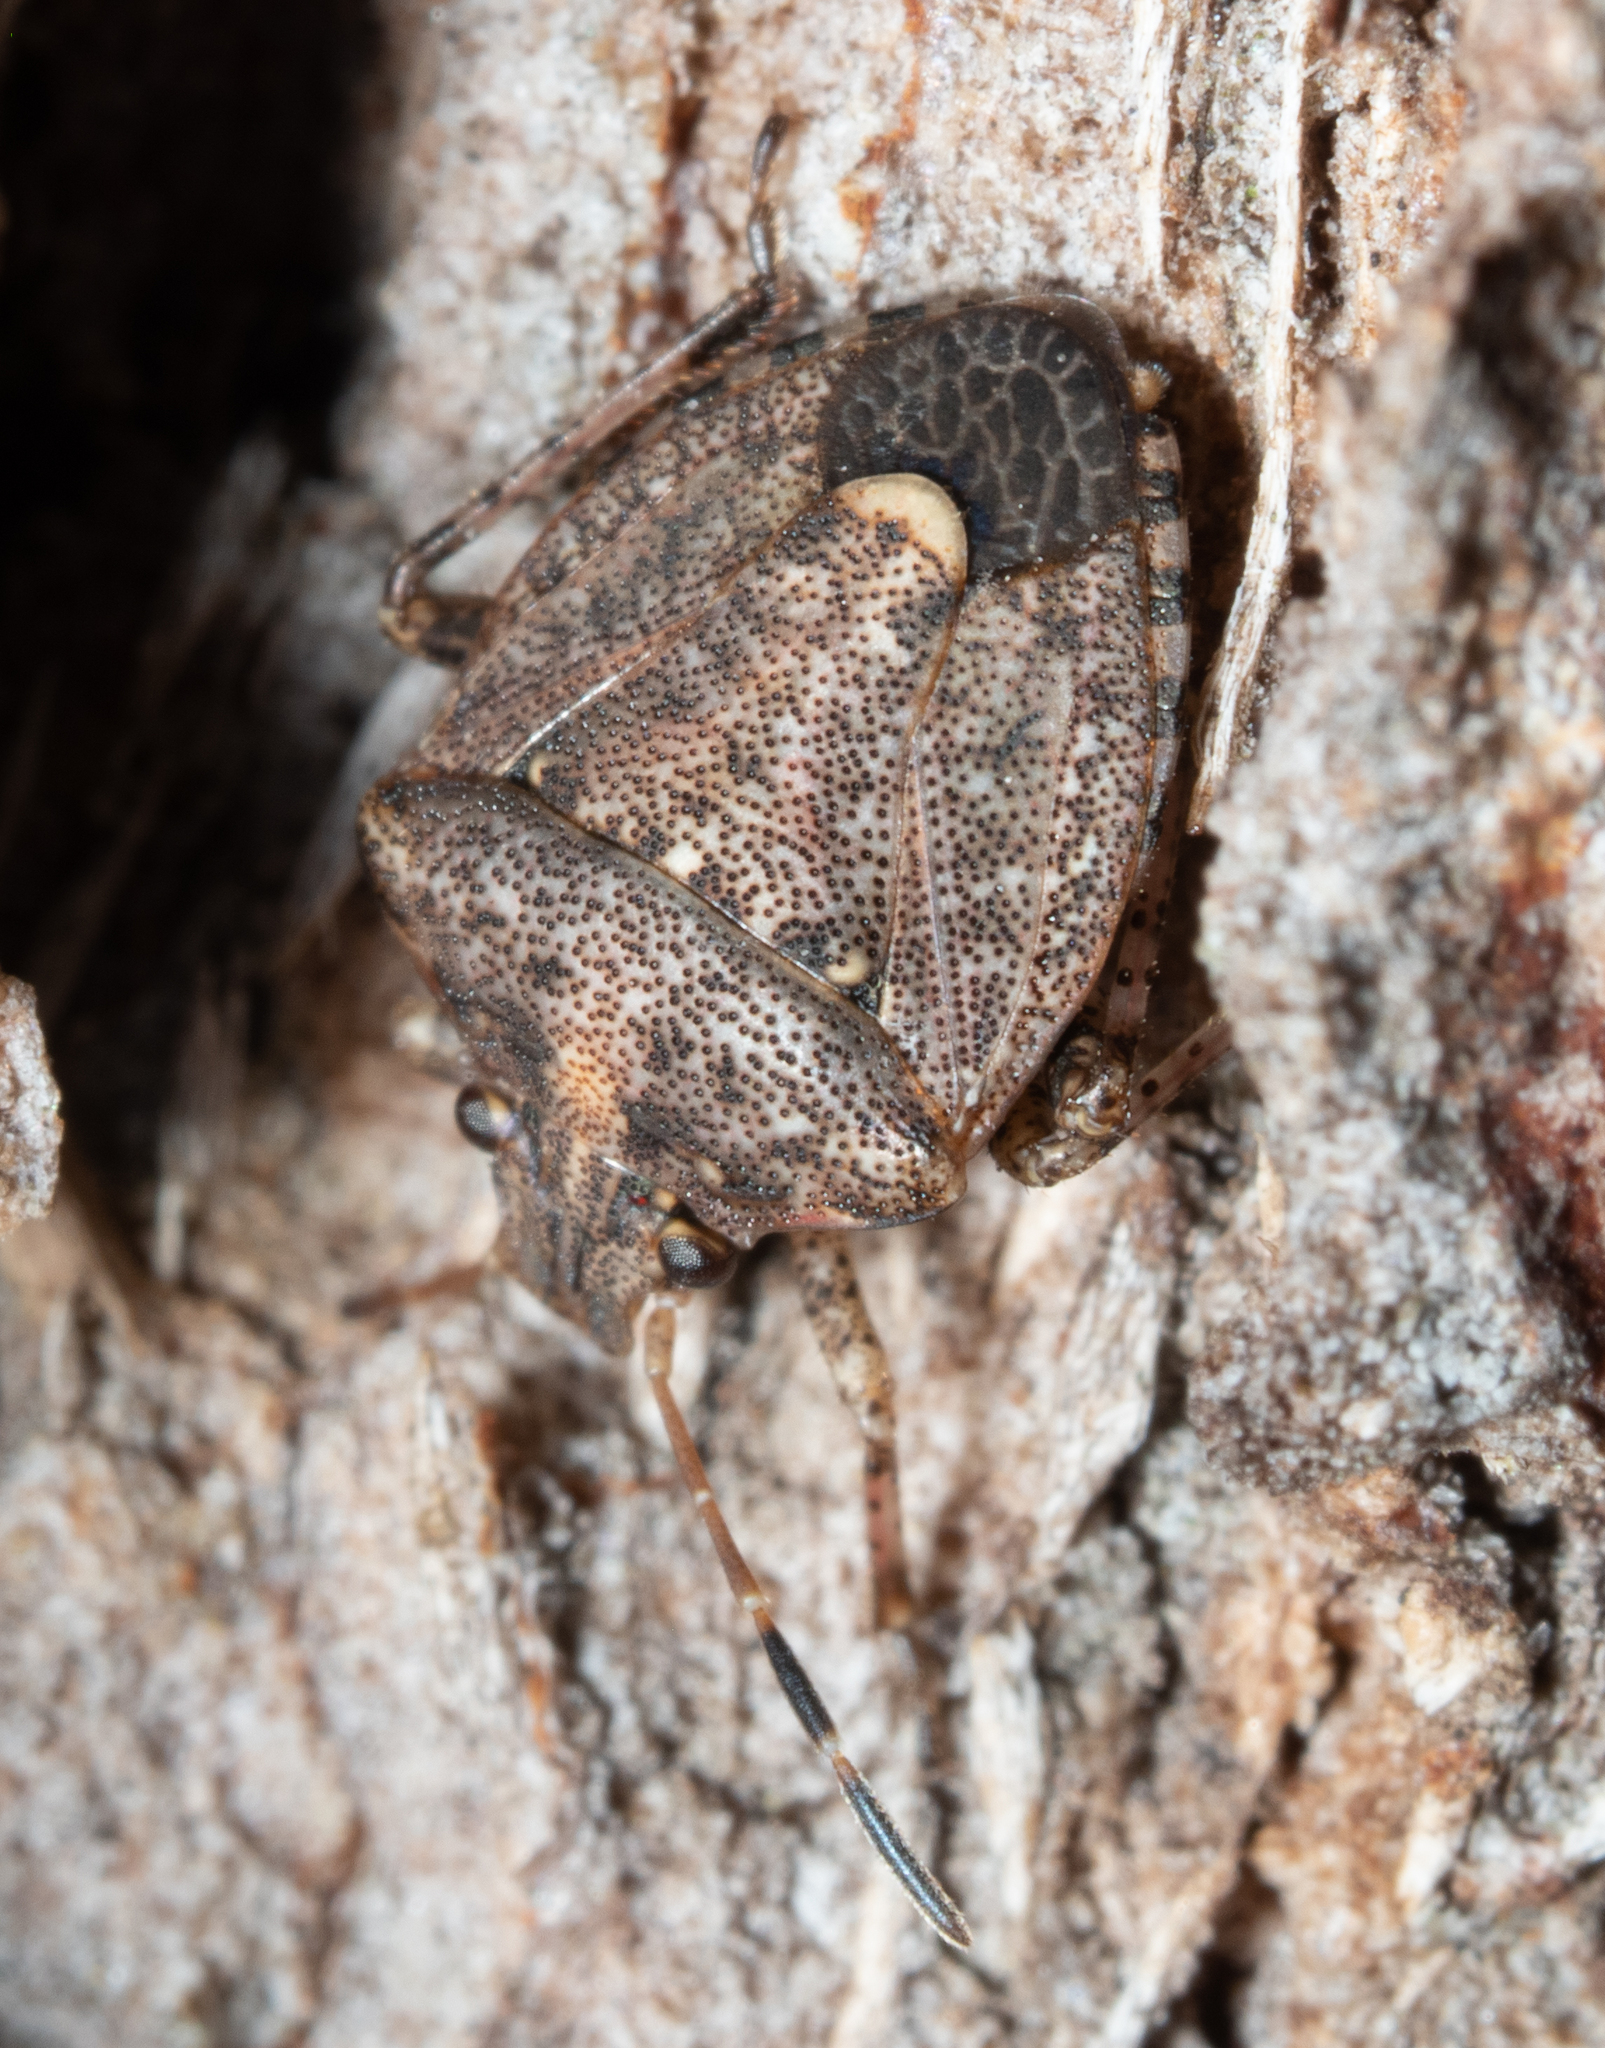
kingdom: Animalia
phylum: Arthropoda
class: Insecta
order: Hemiptera
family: Pentatomidae
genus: Kalkadoona
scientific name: Kalkadoona
